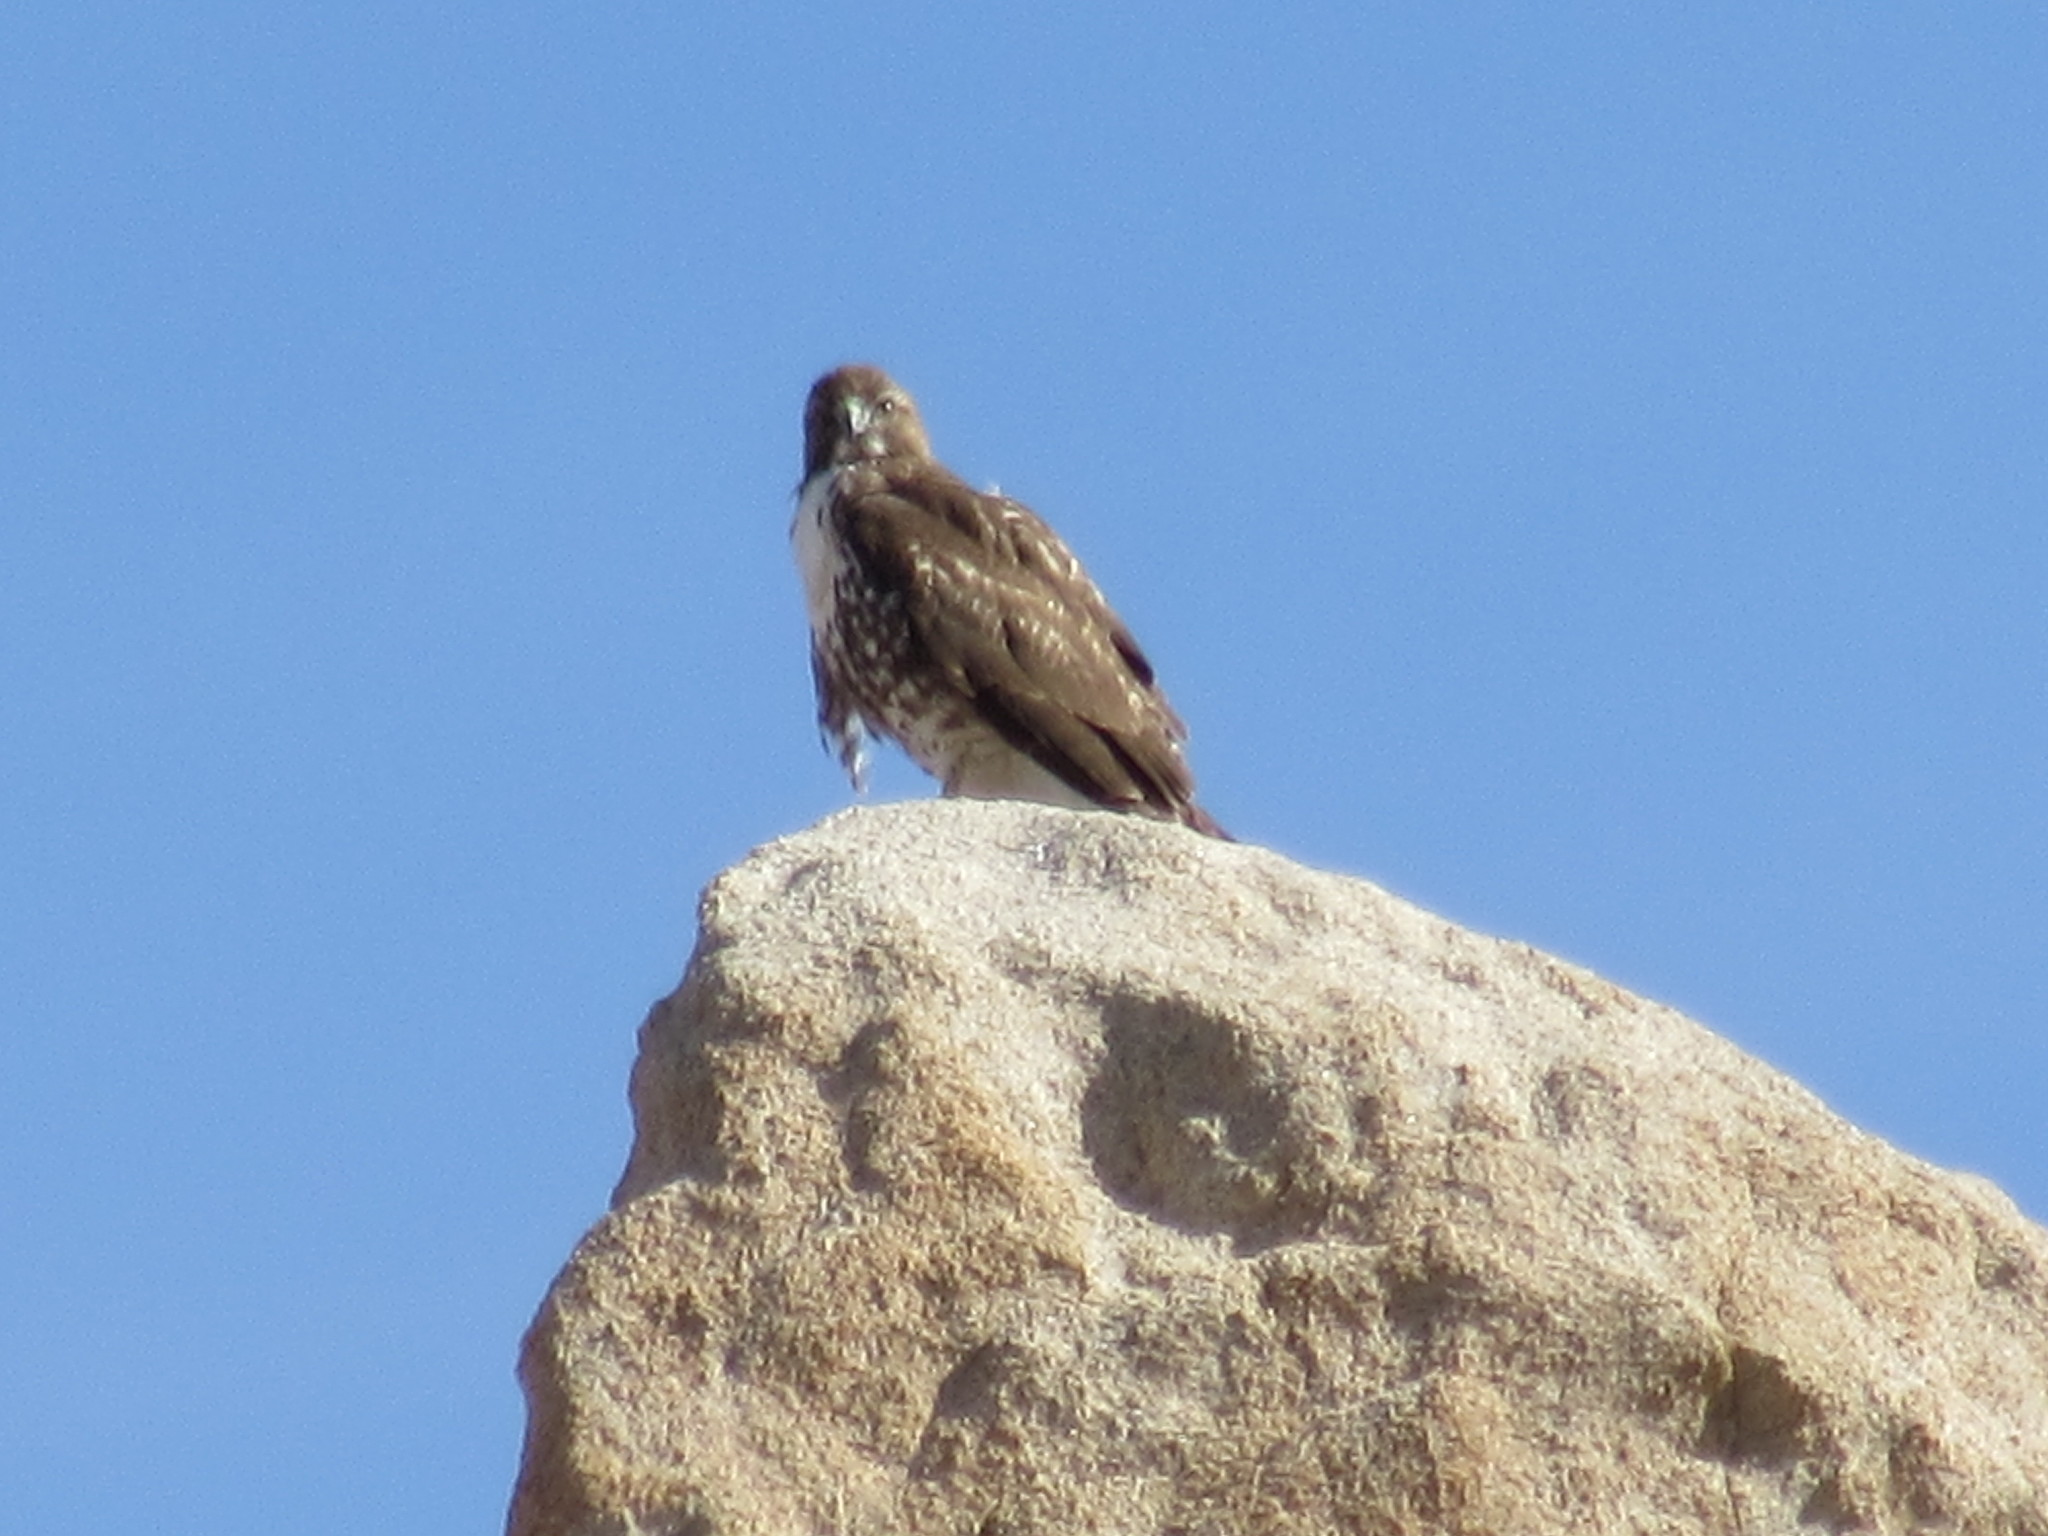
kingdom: Animalia
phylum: Chordata
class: Aves
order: Accipitriformes
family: Accipitridae
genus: Buteo
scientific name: Buteo jamaicensis
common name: Red-tailed hawk
